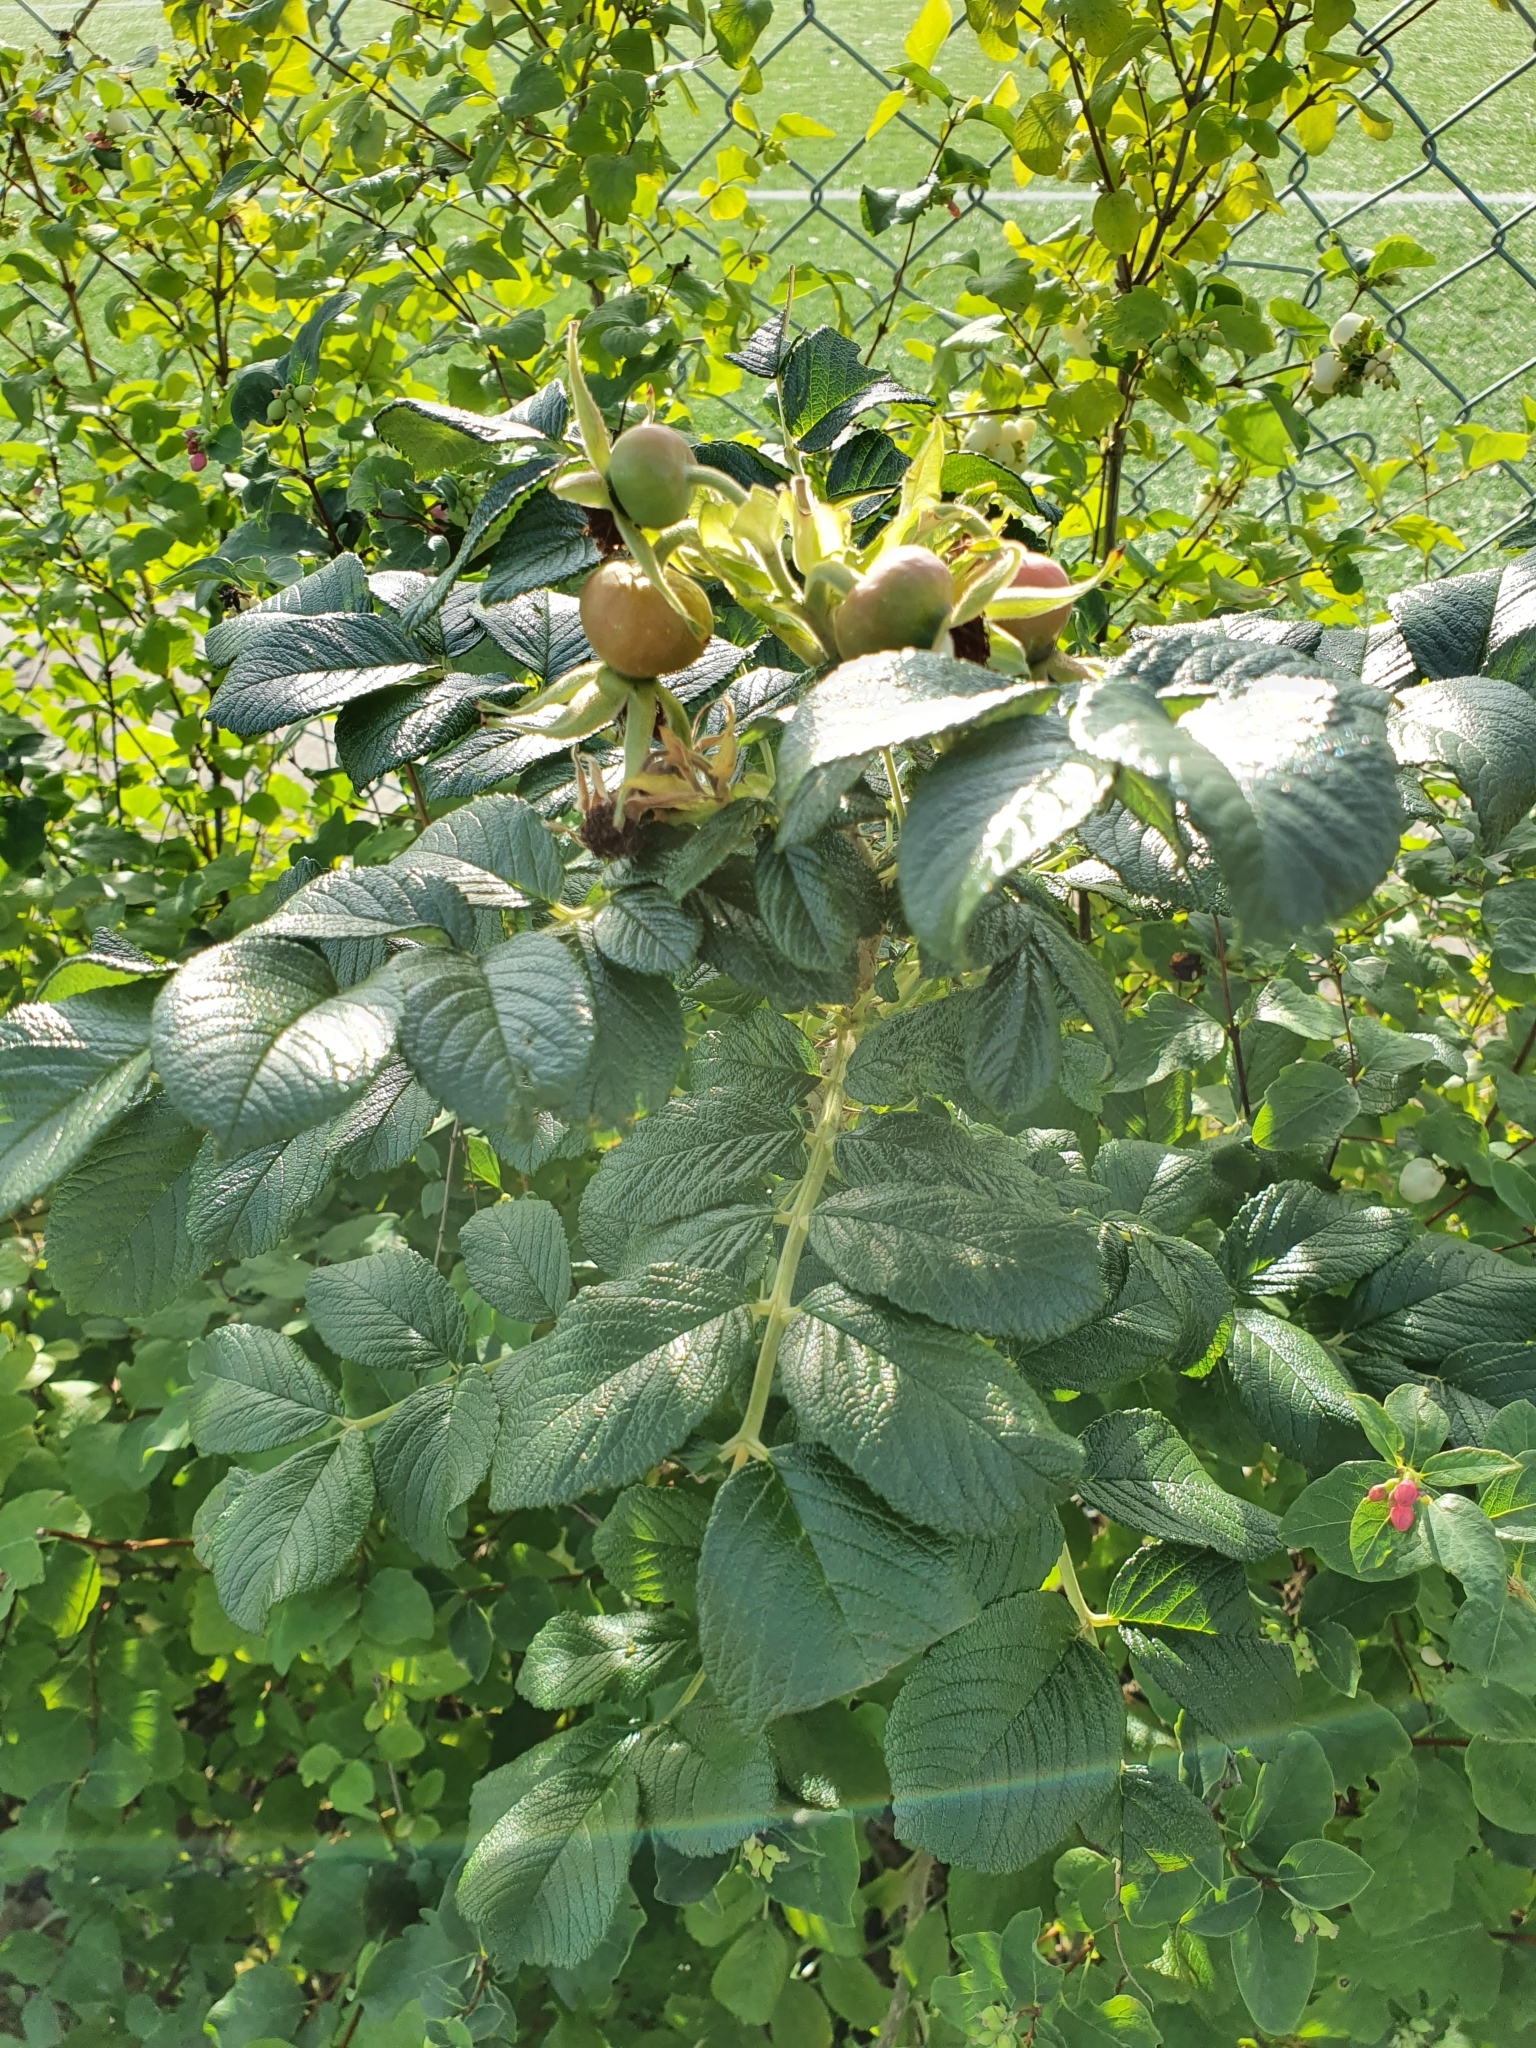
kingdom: Plantae
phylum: Tracheophyta
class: Magnoliopsida
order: Rosales
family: Rosaceae
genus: Rosa
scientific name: Rosa rugosa
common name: Japanese rose
